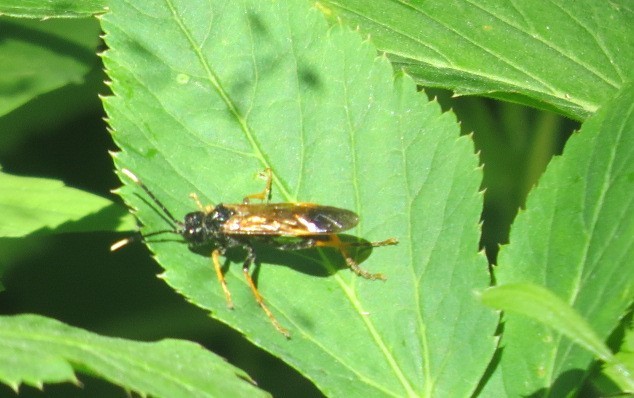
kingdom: Animalia
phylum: Arthropoda
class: Insecta
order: Hymenoptera
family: Tenthredinidae
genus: Tenthredo
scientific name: Tenthredo crassa
